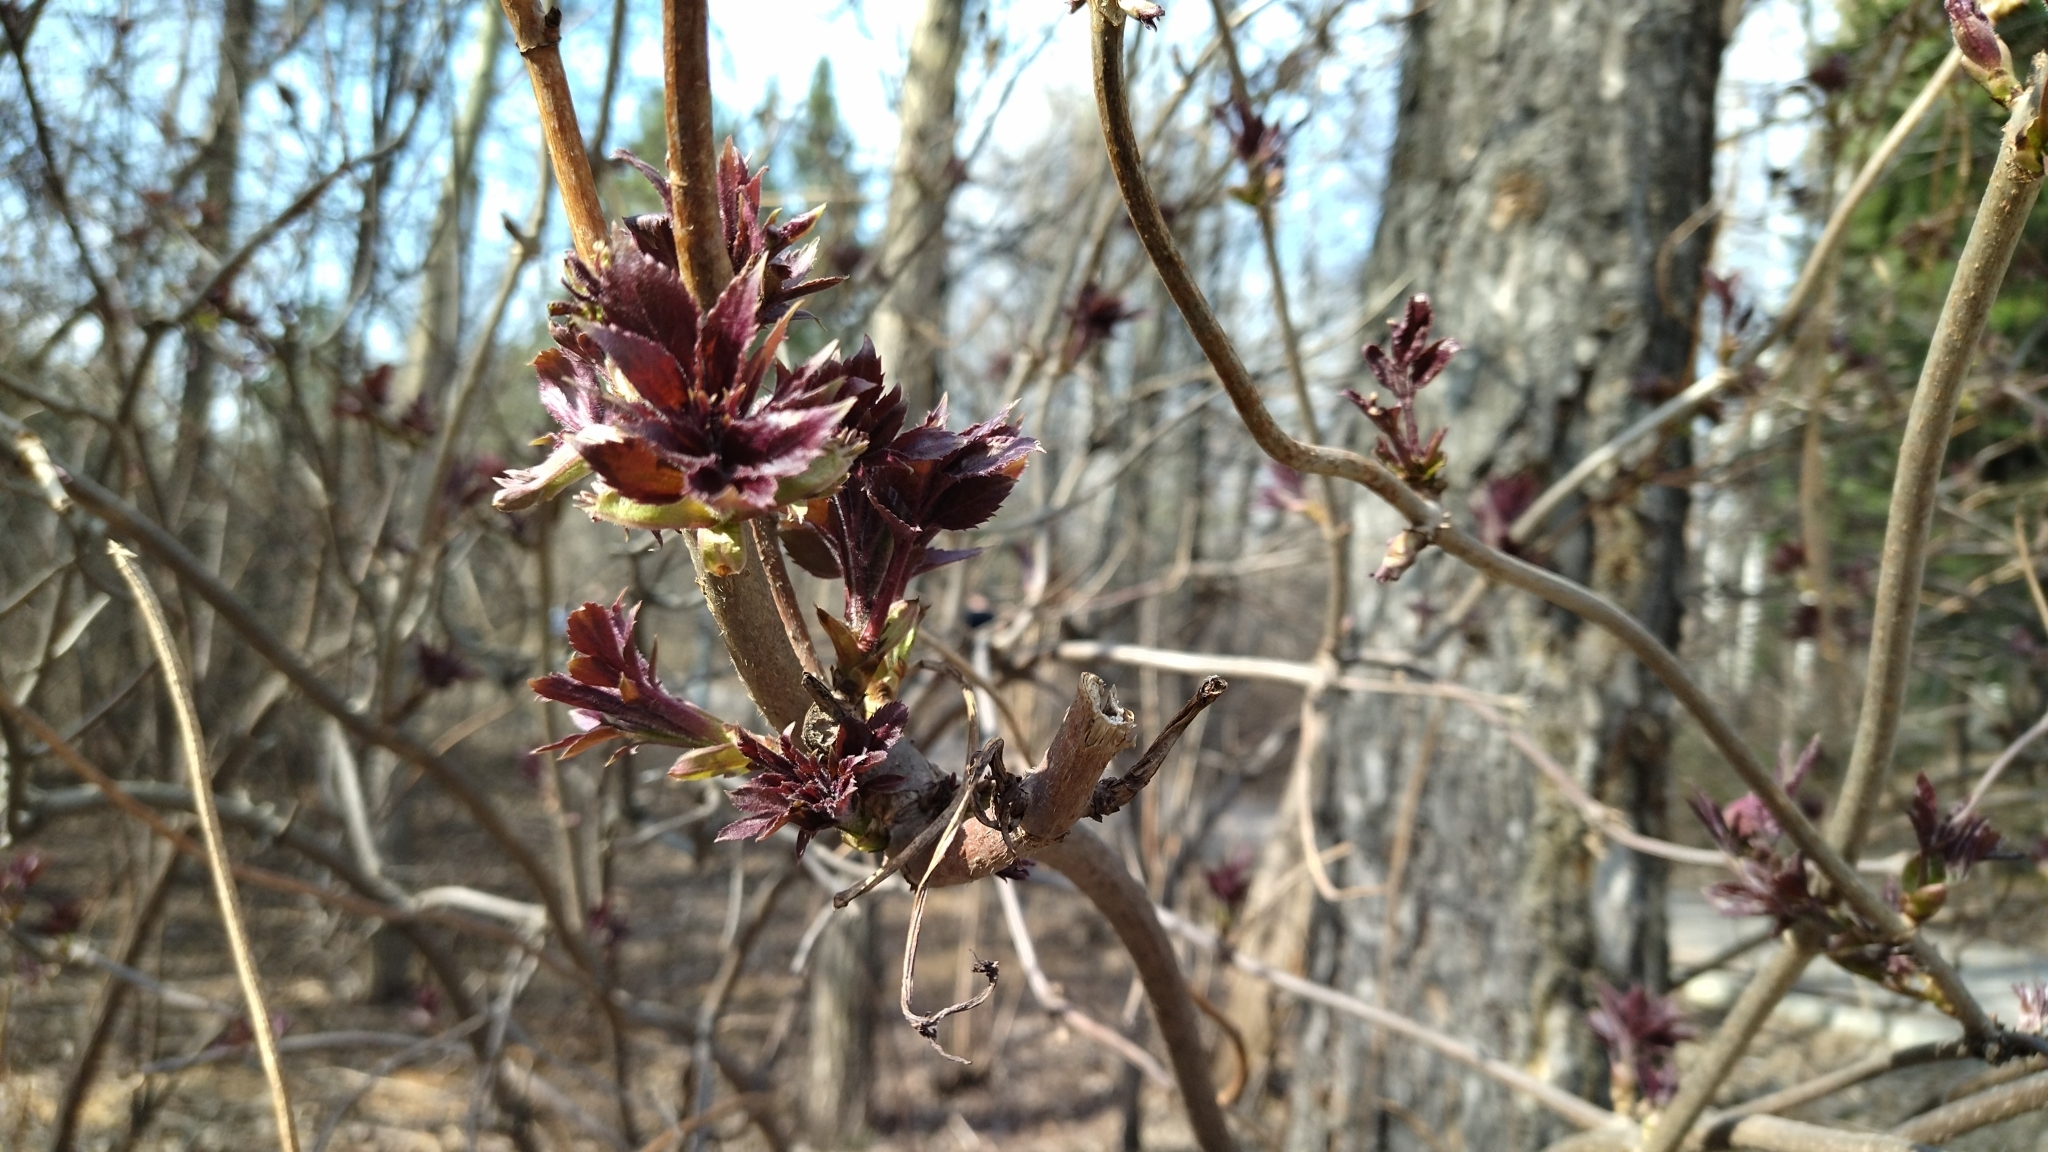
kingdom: Plantae
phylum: Tracheophyta
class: Magnoliopsida
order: Dipsacales
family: Viburnaceae
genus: Sambucus
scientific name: Sambucus sibirica
